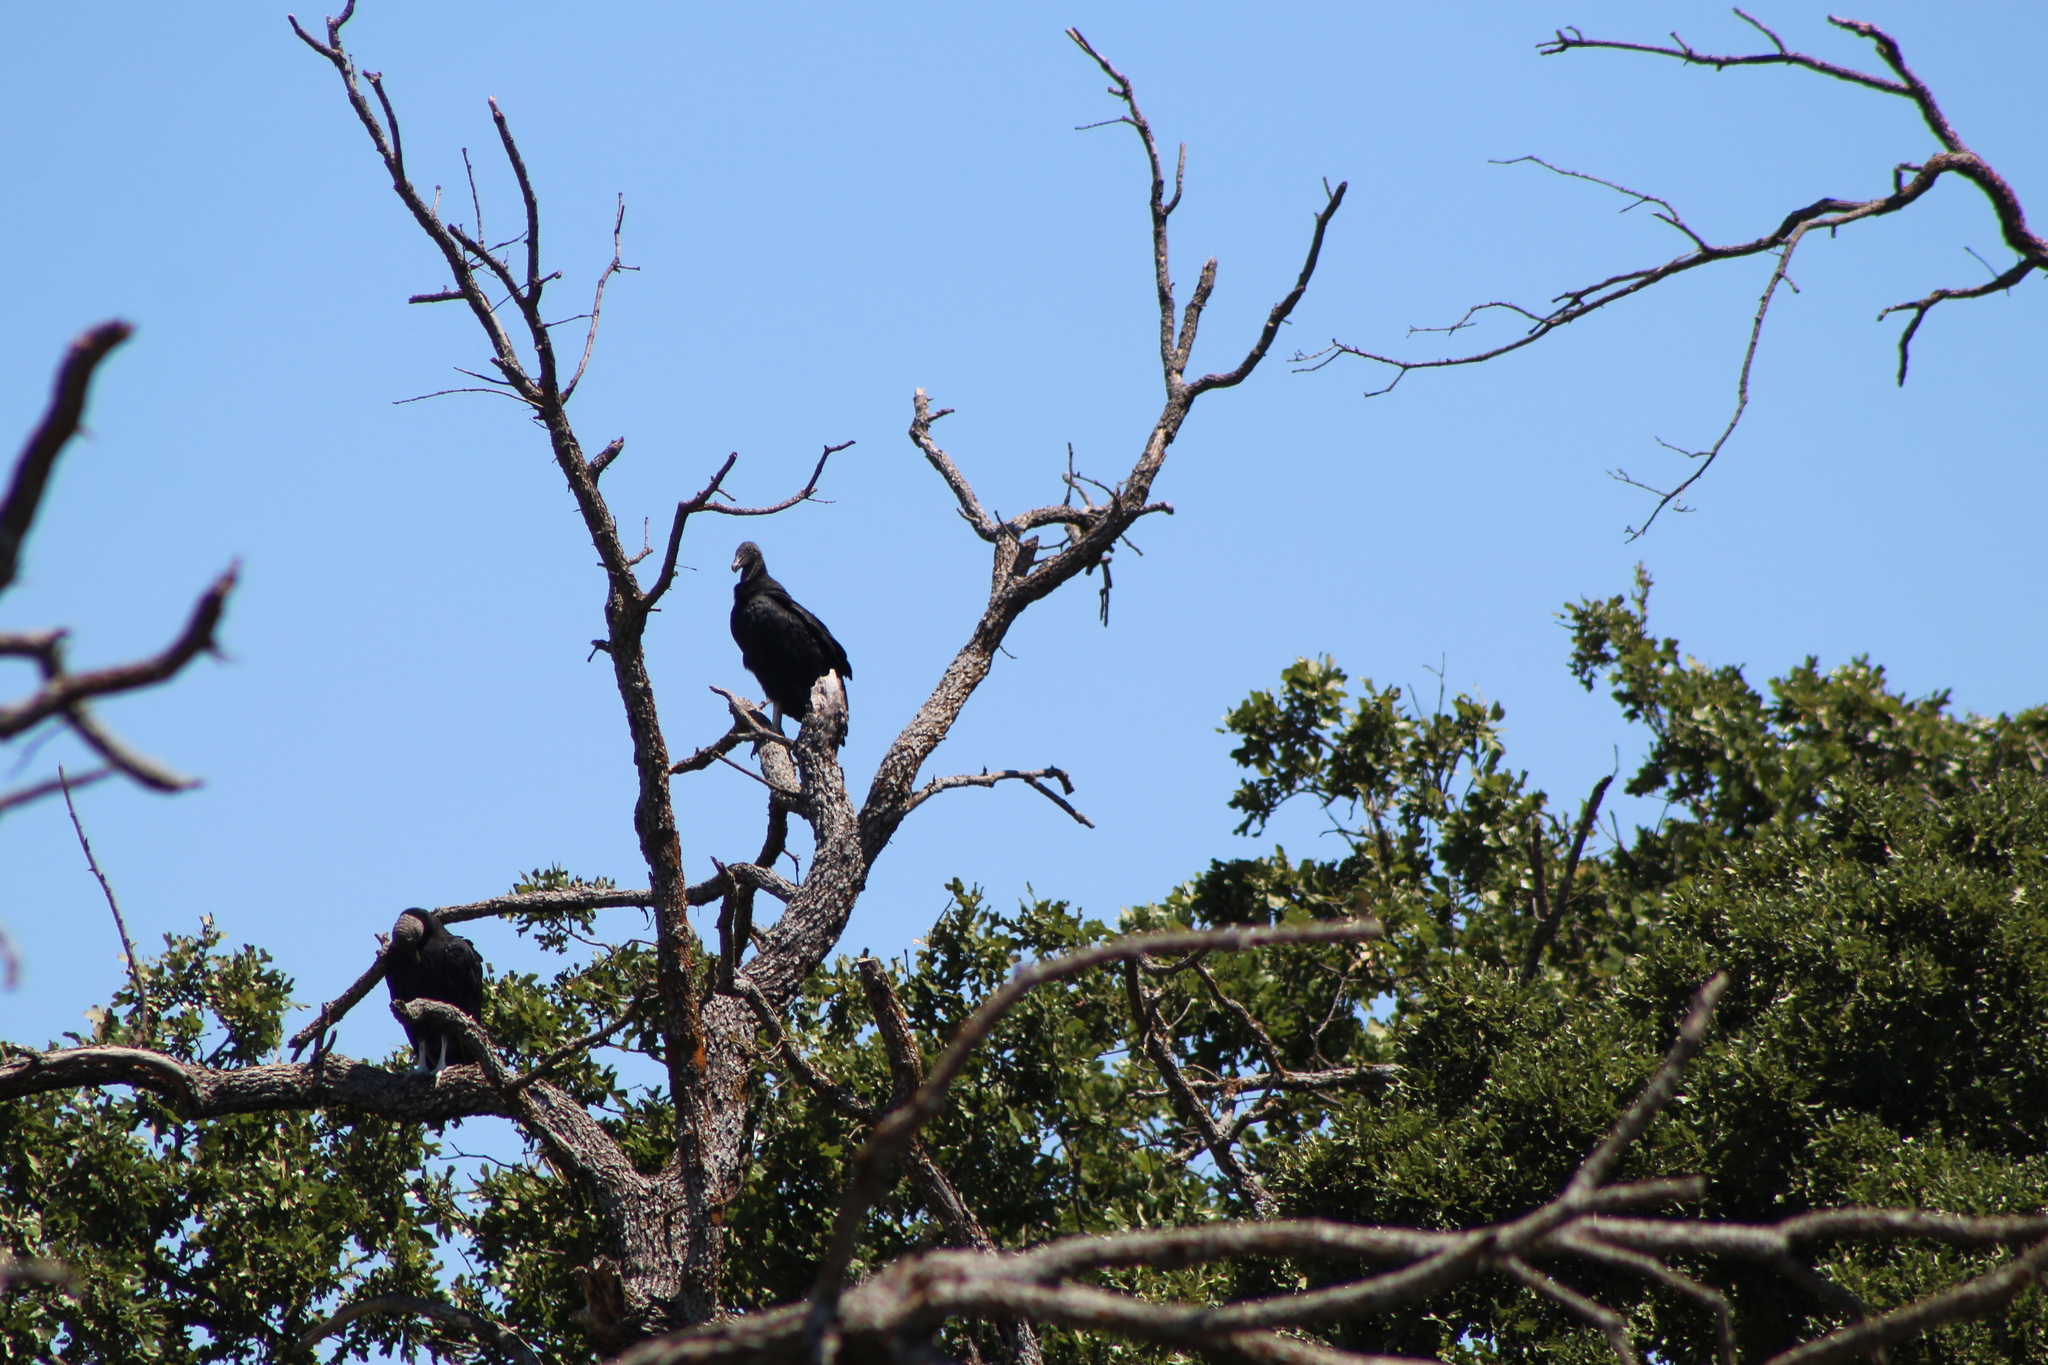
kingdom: Animalia
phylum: Chordata
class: Aves
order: Accipitriformes
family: Cathartidae
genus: Coragyps
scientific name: Coragyps atratus
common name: Black vulture
